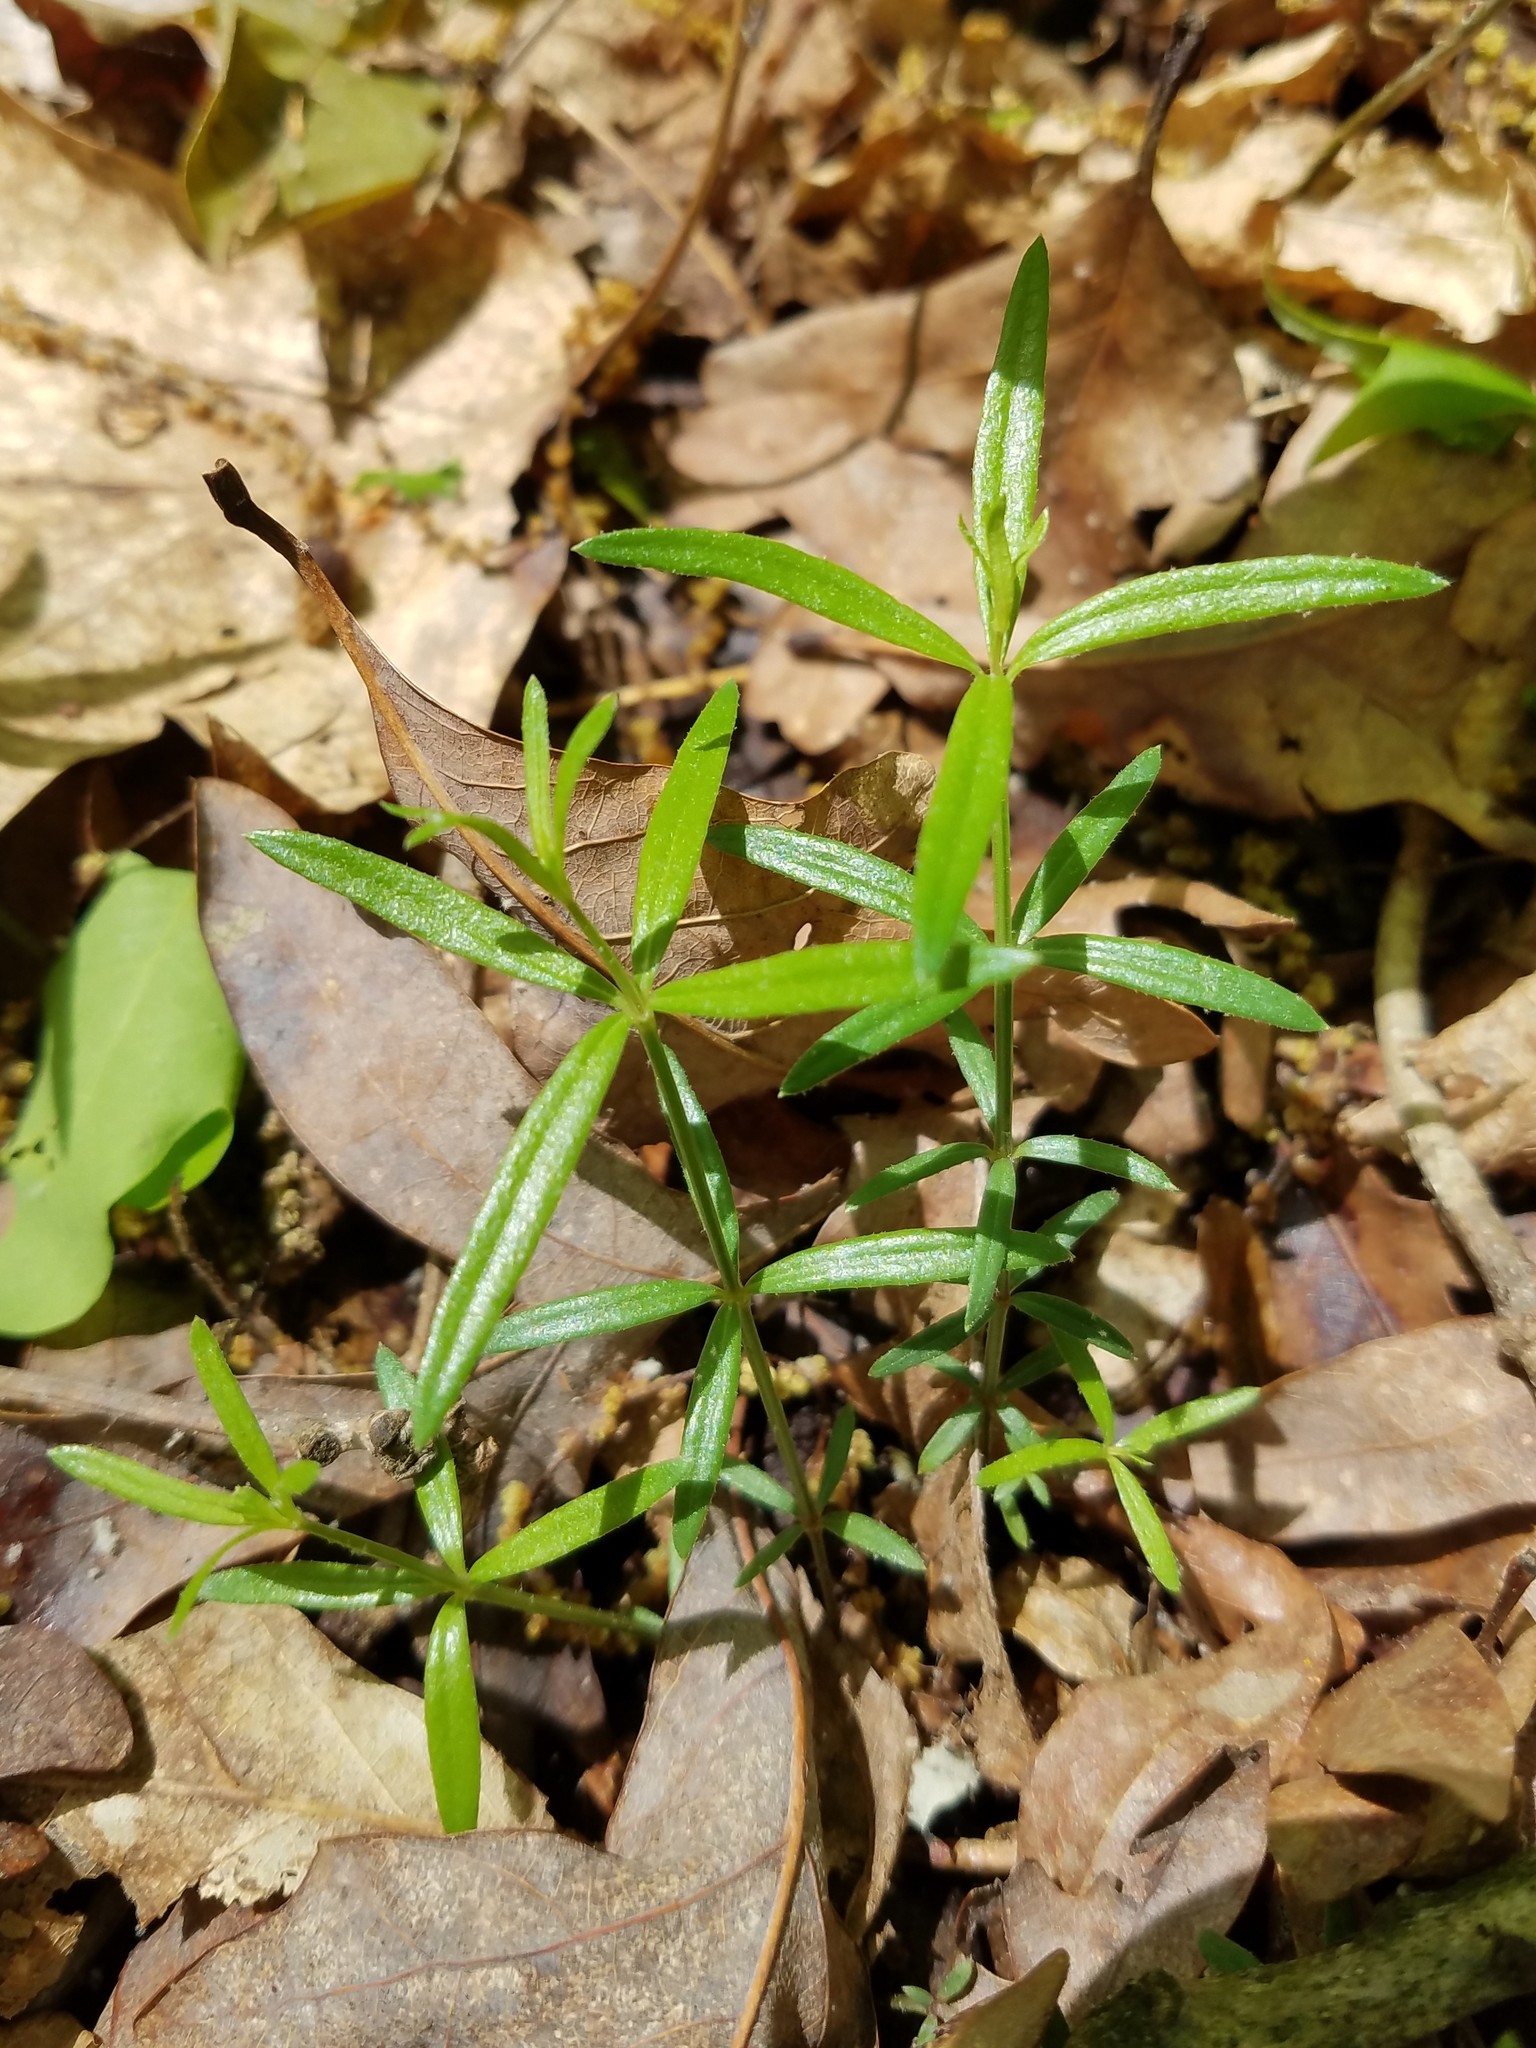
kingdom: Plantae
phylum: Tracheophyta
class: Magnoliopsida
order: Gentianales
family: Rubiaceae
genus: Galium
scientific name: Galium uniflorum
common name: One-flower bedstraw
